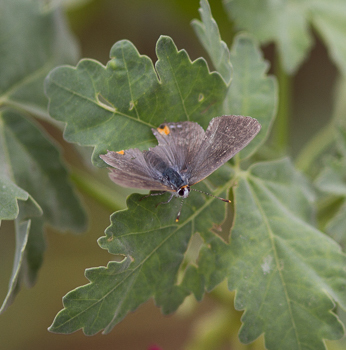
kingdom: Animalia
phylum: Arthropoda
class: Insecta
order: Lepidoptera
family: Lycaenidae
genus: Strymon
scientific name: Strymon melinus
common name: Gray hairstreak
